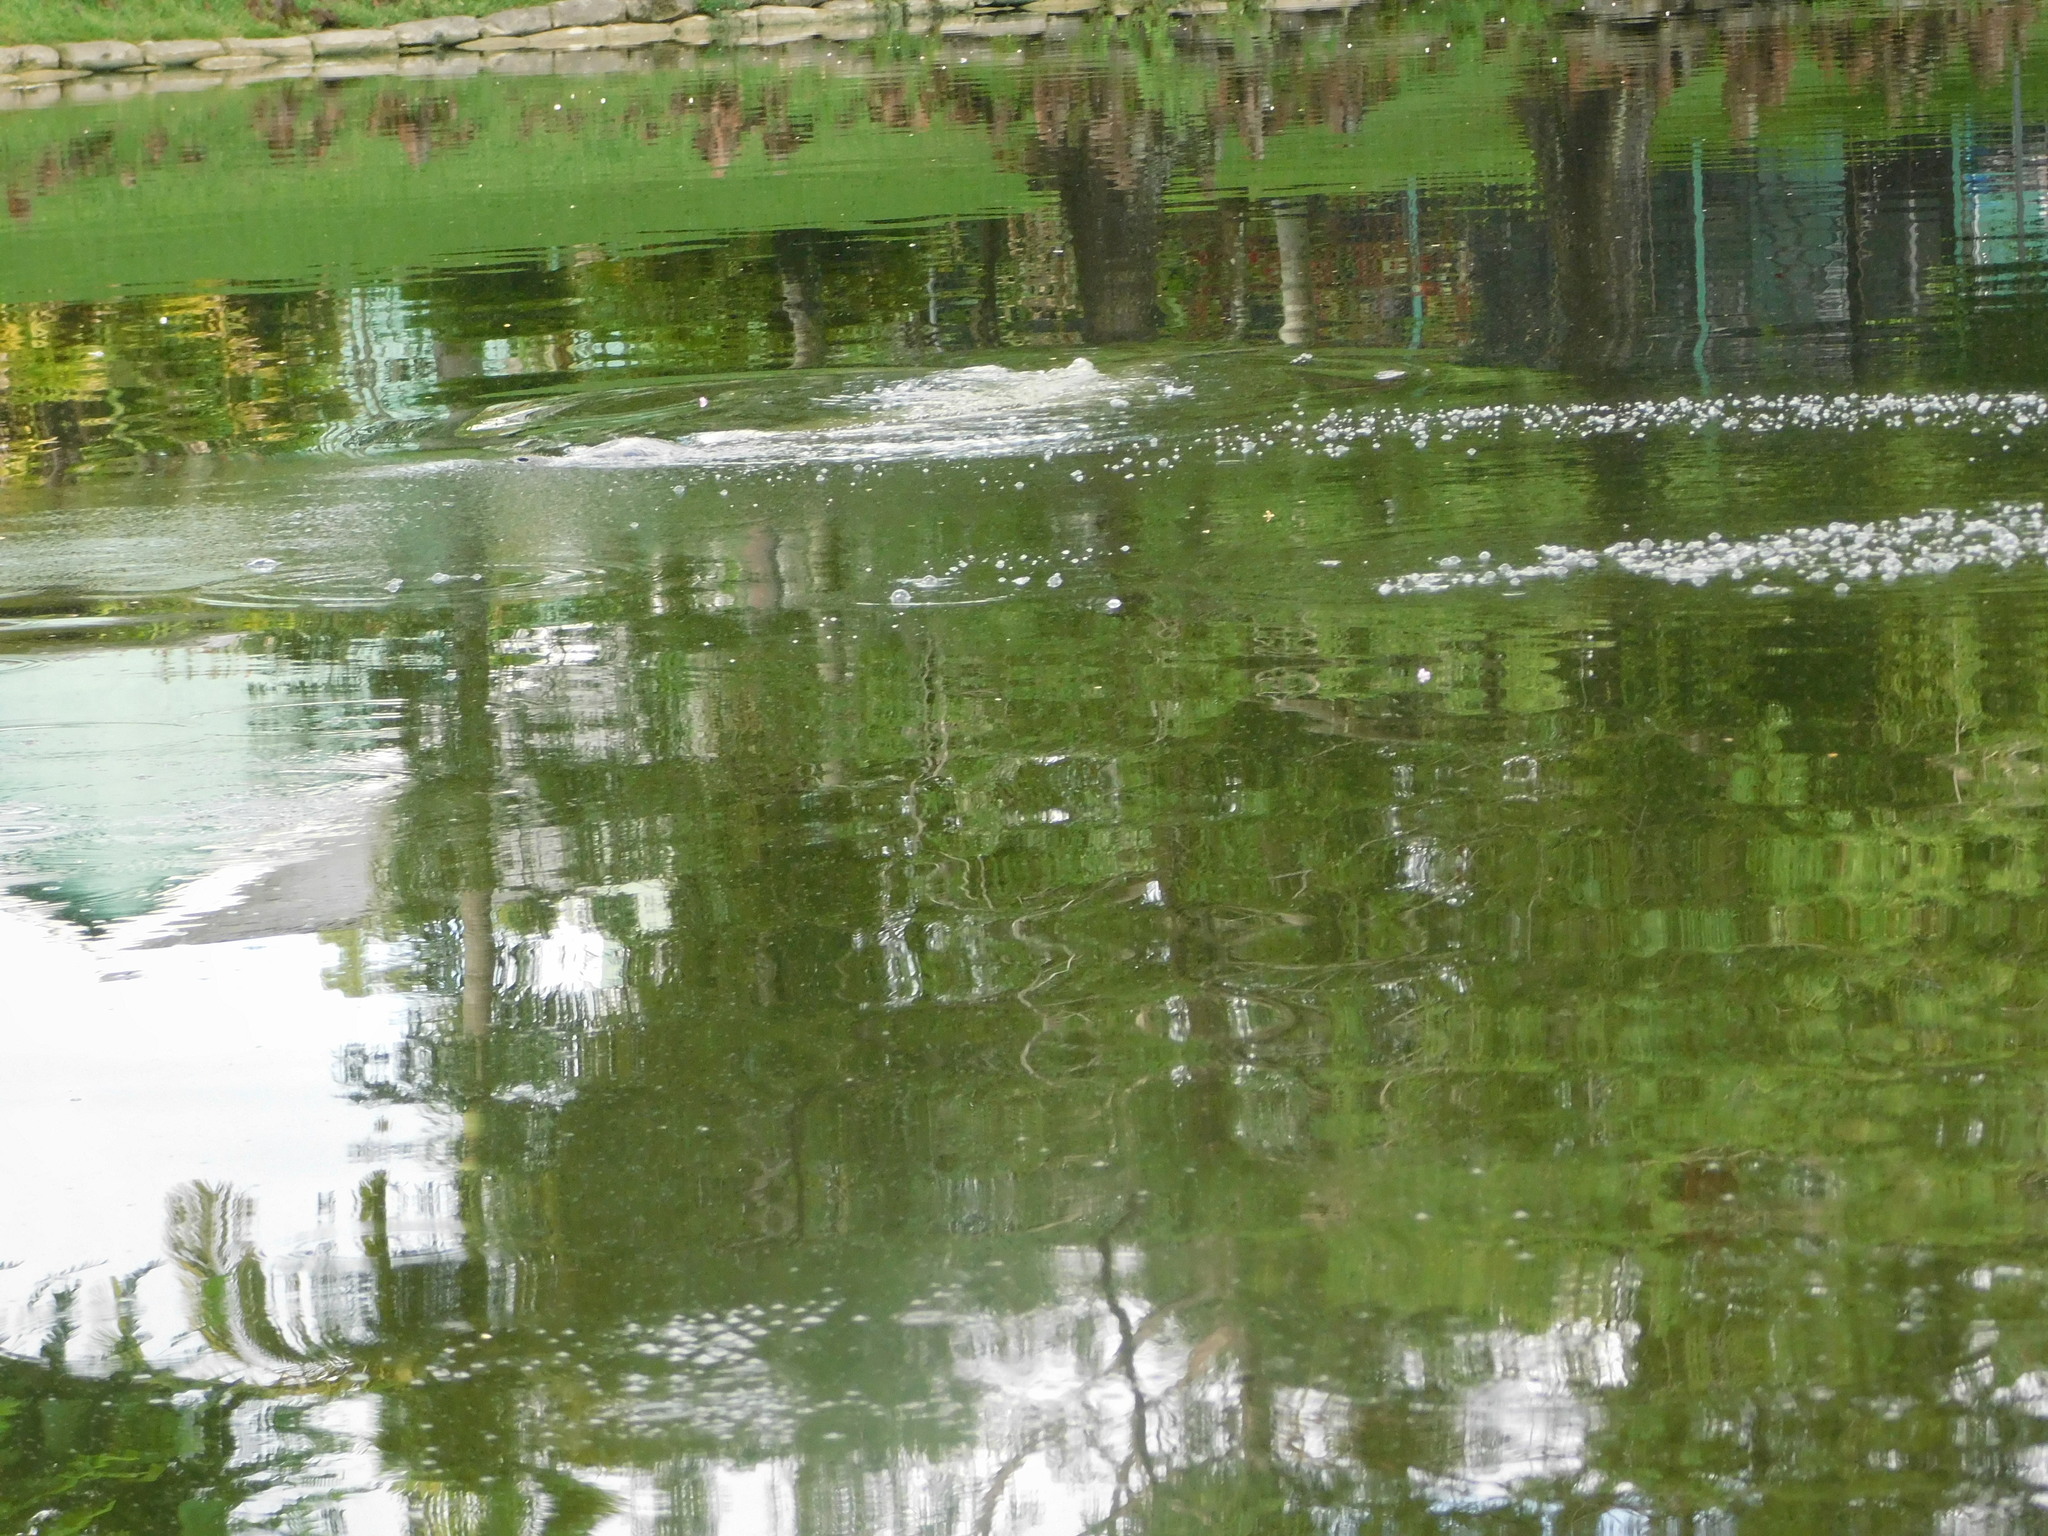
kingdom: Animalia
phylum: Chordata
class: Mammalia
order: Sirenia
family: Trichechidae
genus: Trichechus
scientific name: Trichechus manatus
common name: West indian manatee
